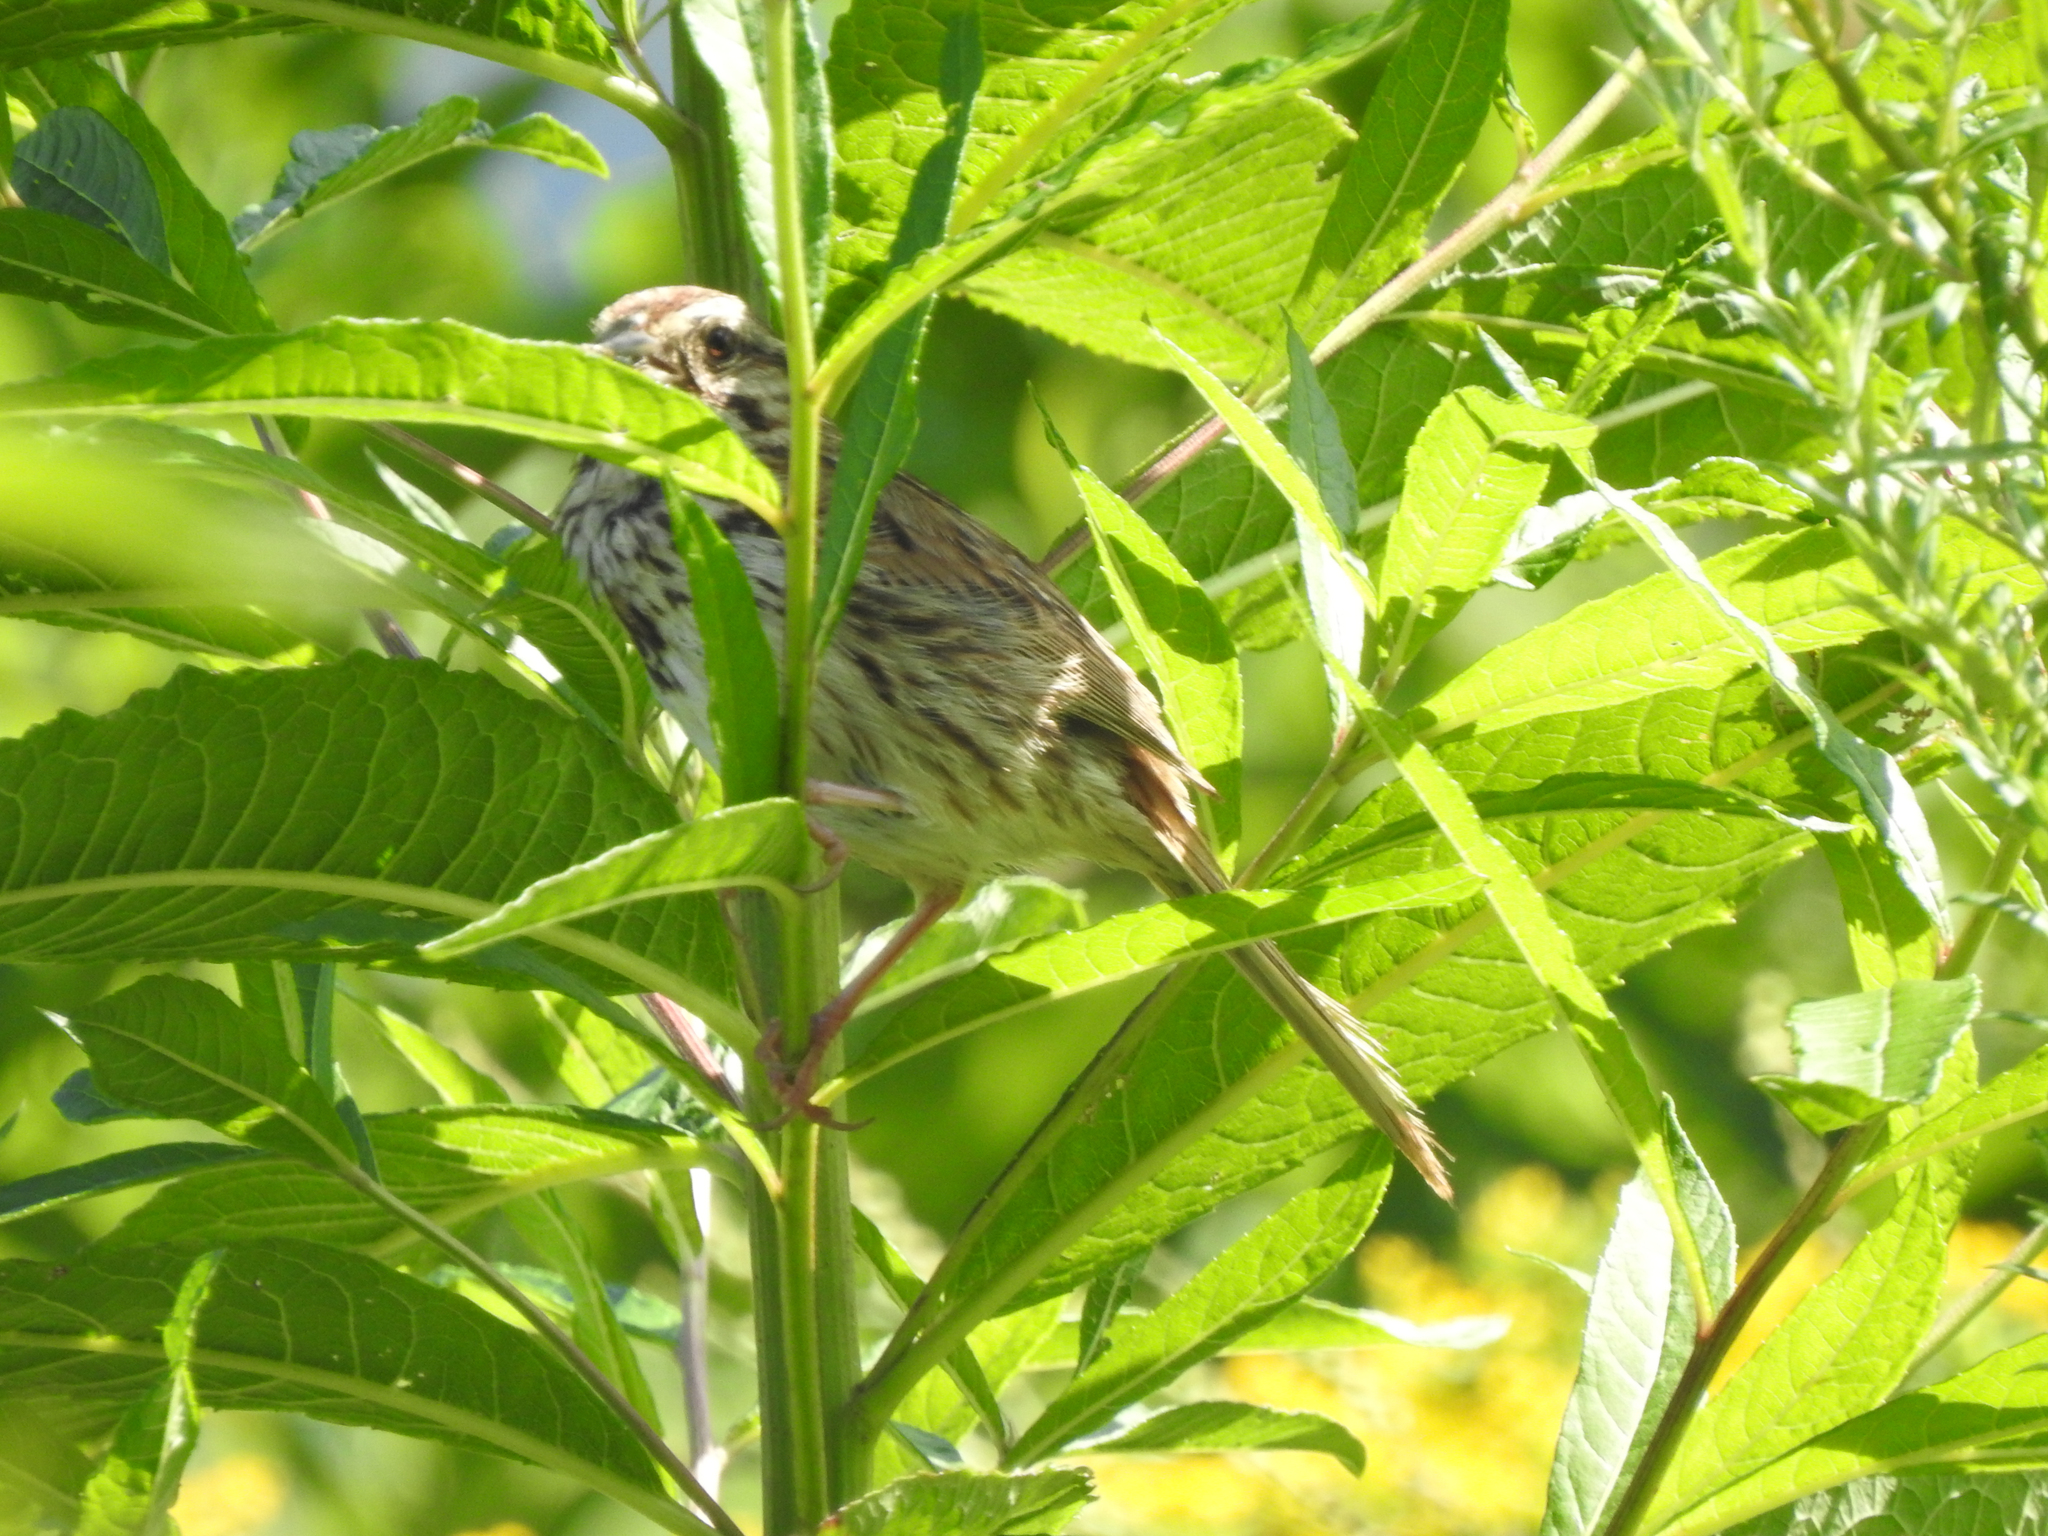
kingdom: Animalia
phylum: Chordata
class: Aves
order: Passeriformes
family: Passerellidae
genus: Melospiza
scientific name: Melospiza melodia
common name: Song sparrow
